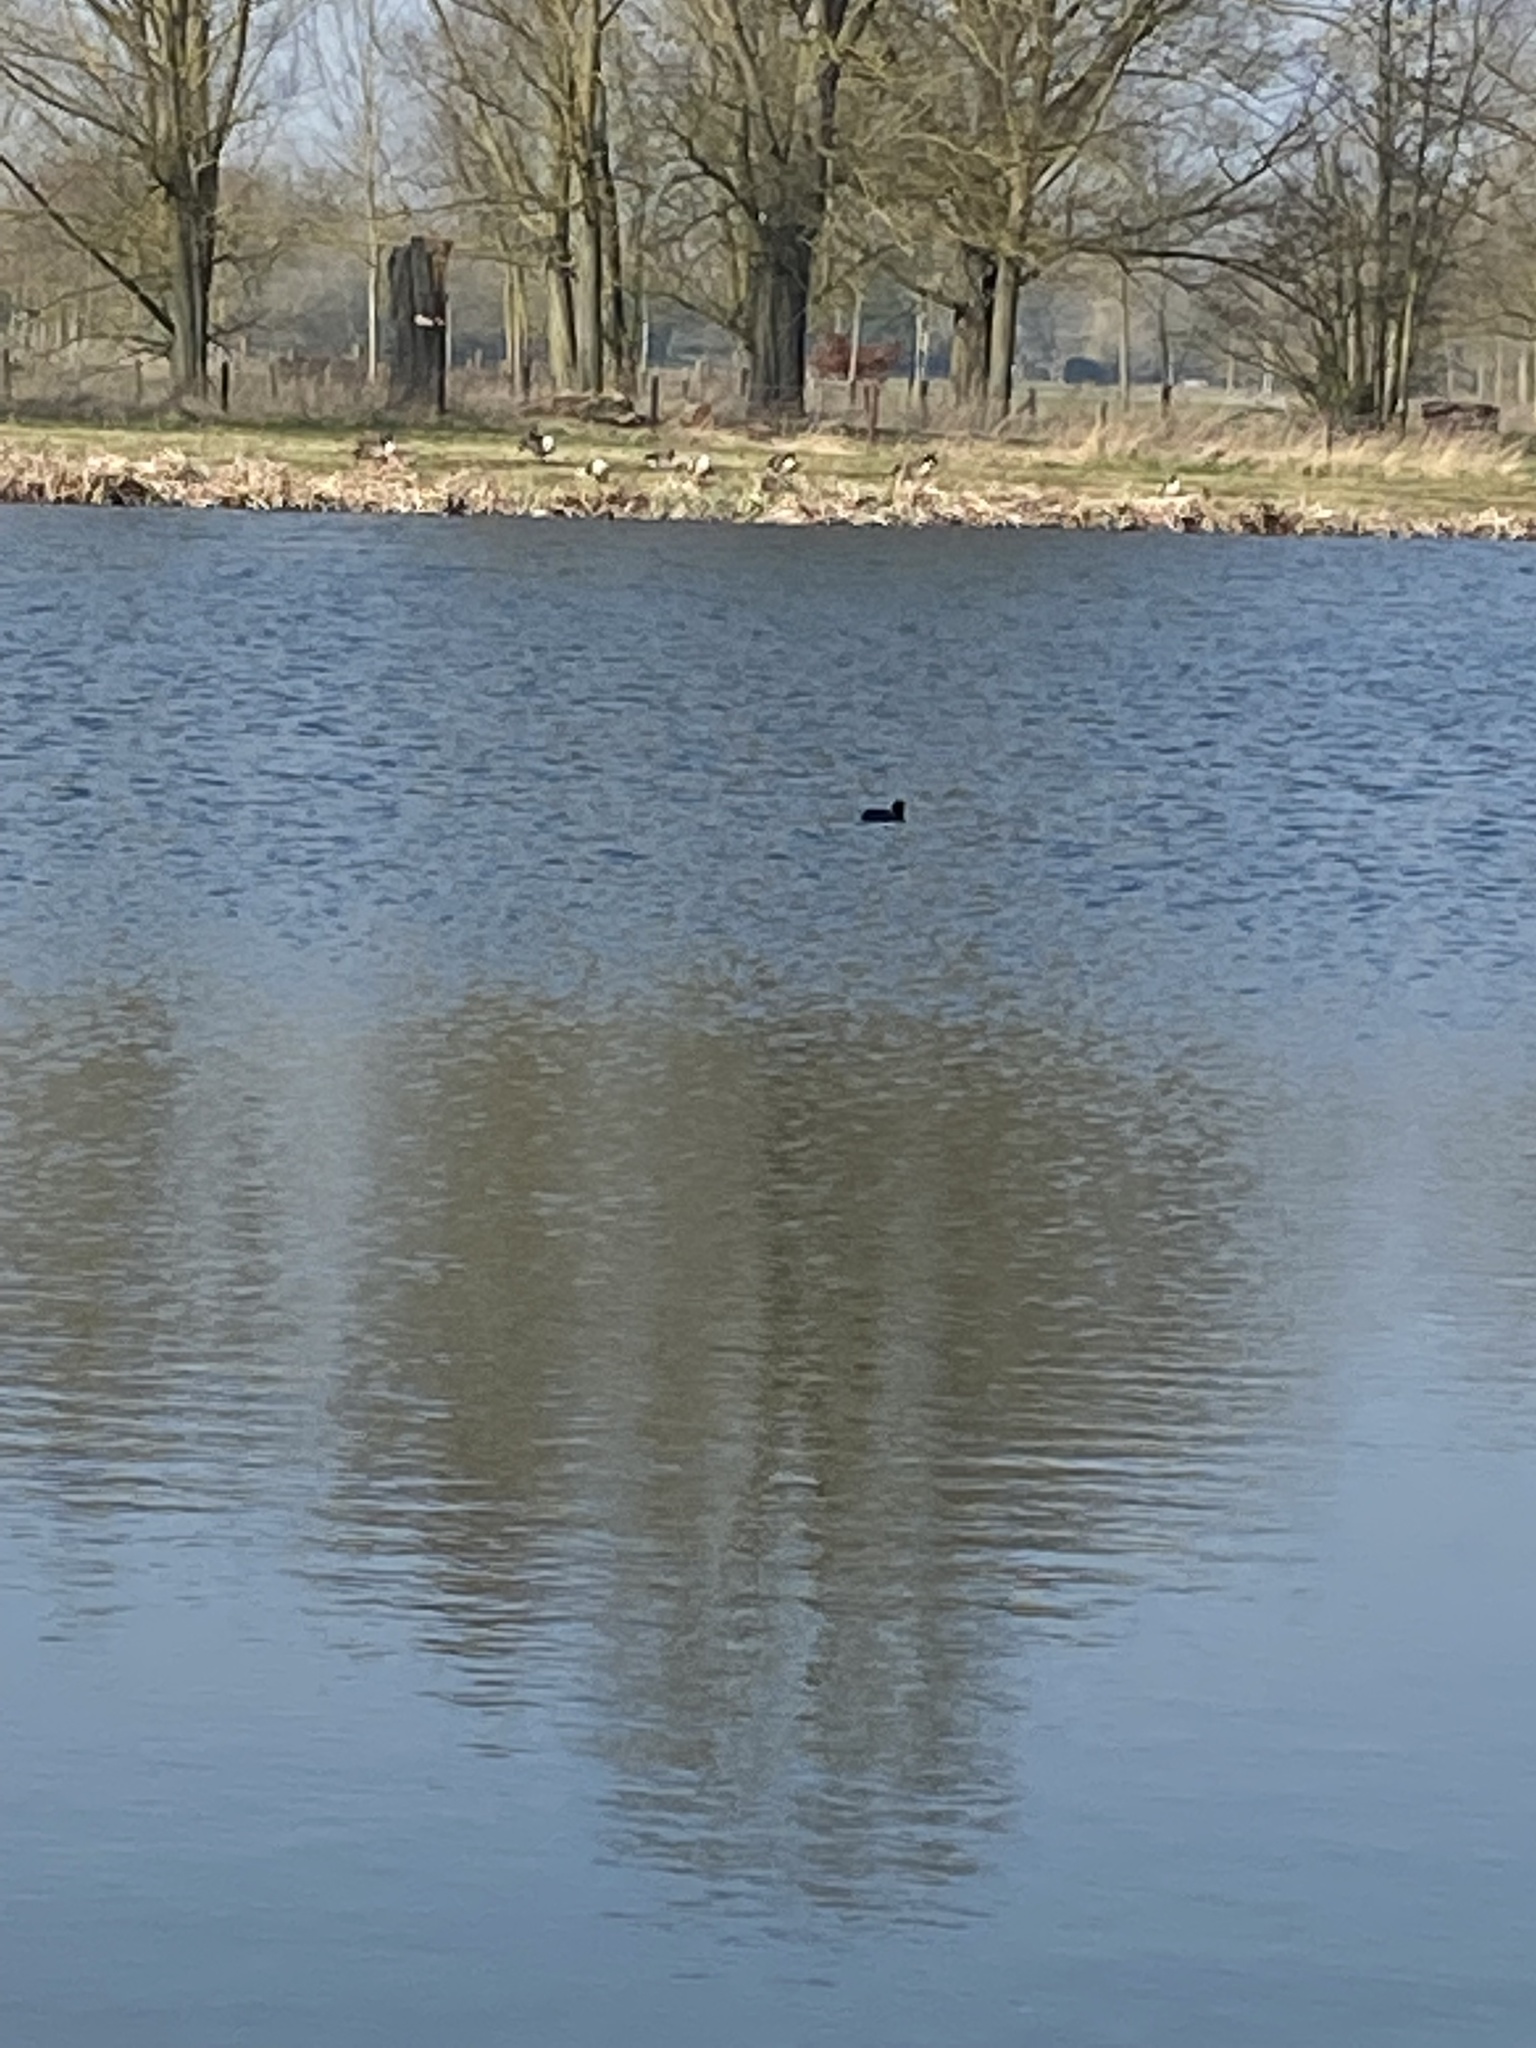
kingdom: Animalia
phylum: Chordata
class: Aves
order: Gruiformes
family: Rallidae
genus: Fulica
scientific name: Fulica atra
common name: Eurasian coot
